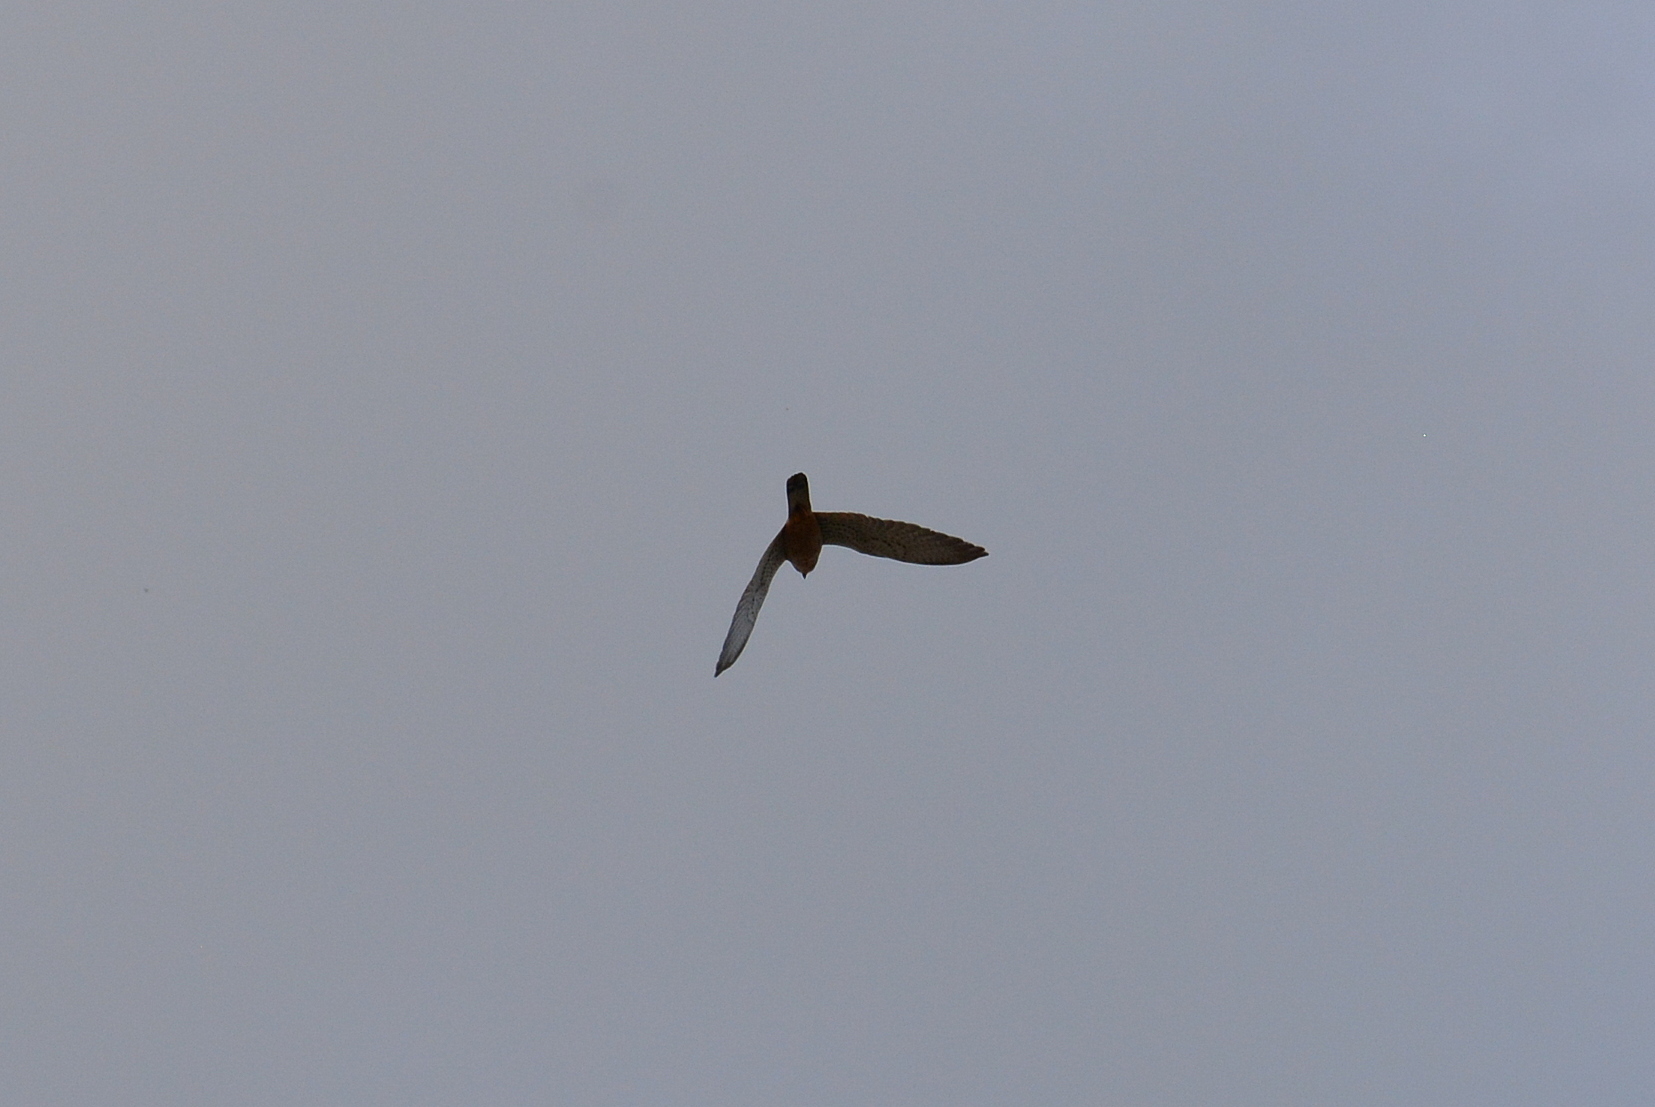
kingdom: Animalia
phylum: Chordata
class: Aves
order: Falconiformes
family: Falconidae
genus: Falco
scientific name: Falco tinnunculus
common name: Common kestrel
